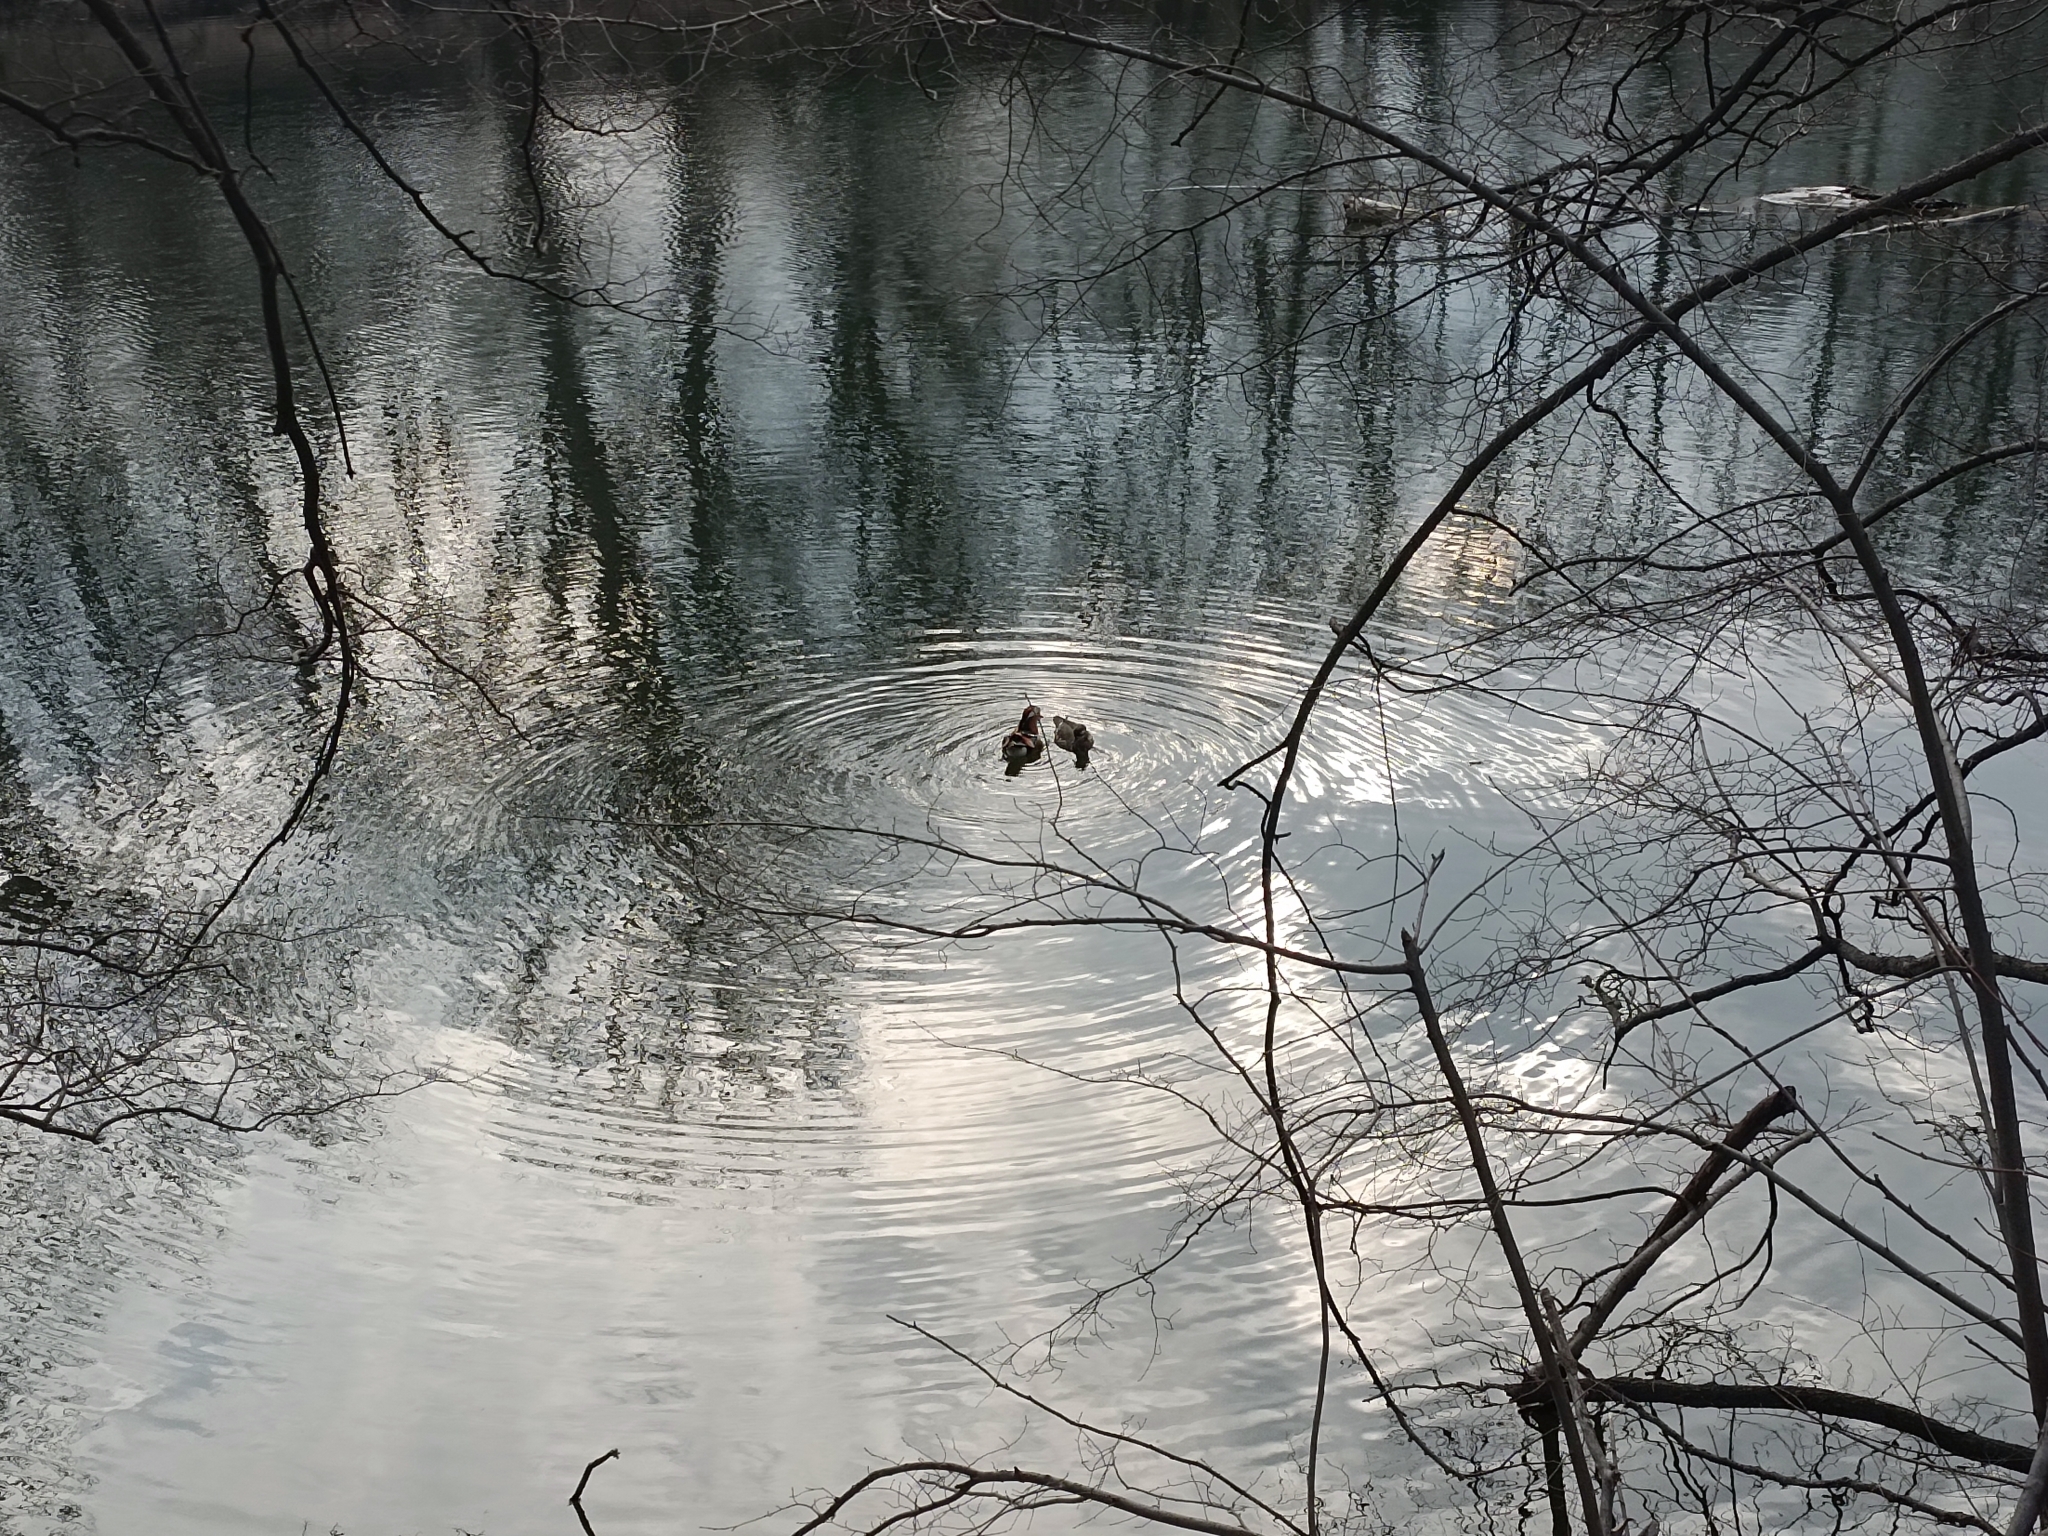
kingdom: Animalia
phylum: Chordata
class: Aves
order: Anseriformes
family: Anatidae
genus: Aix
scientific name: Aix galericulata
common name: Mandarin duck
